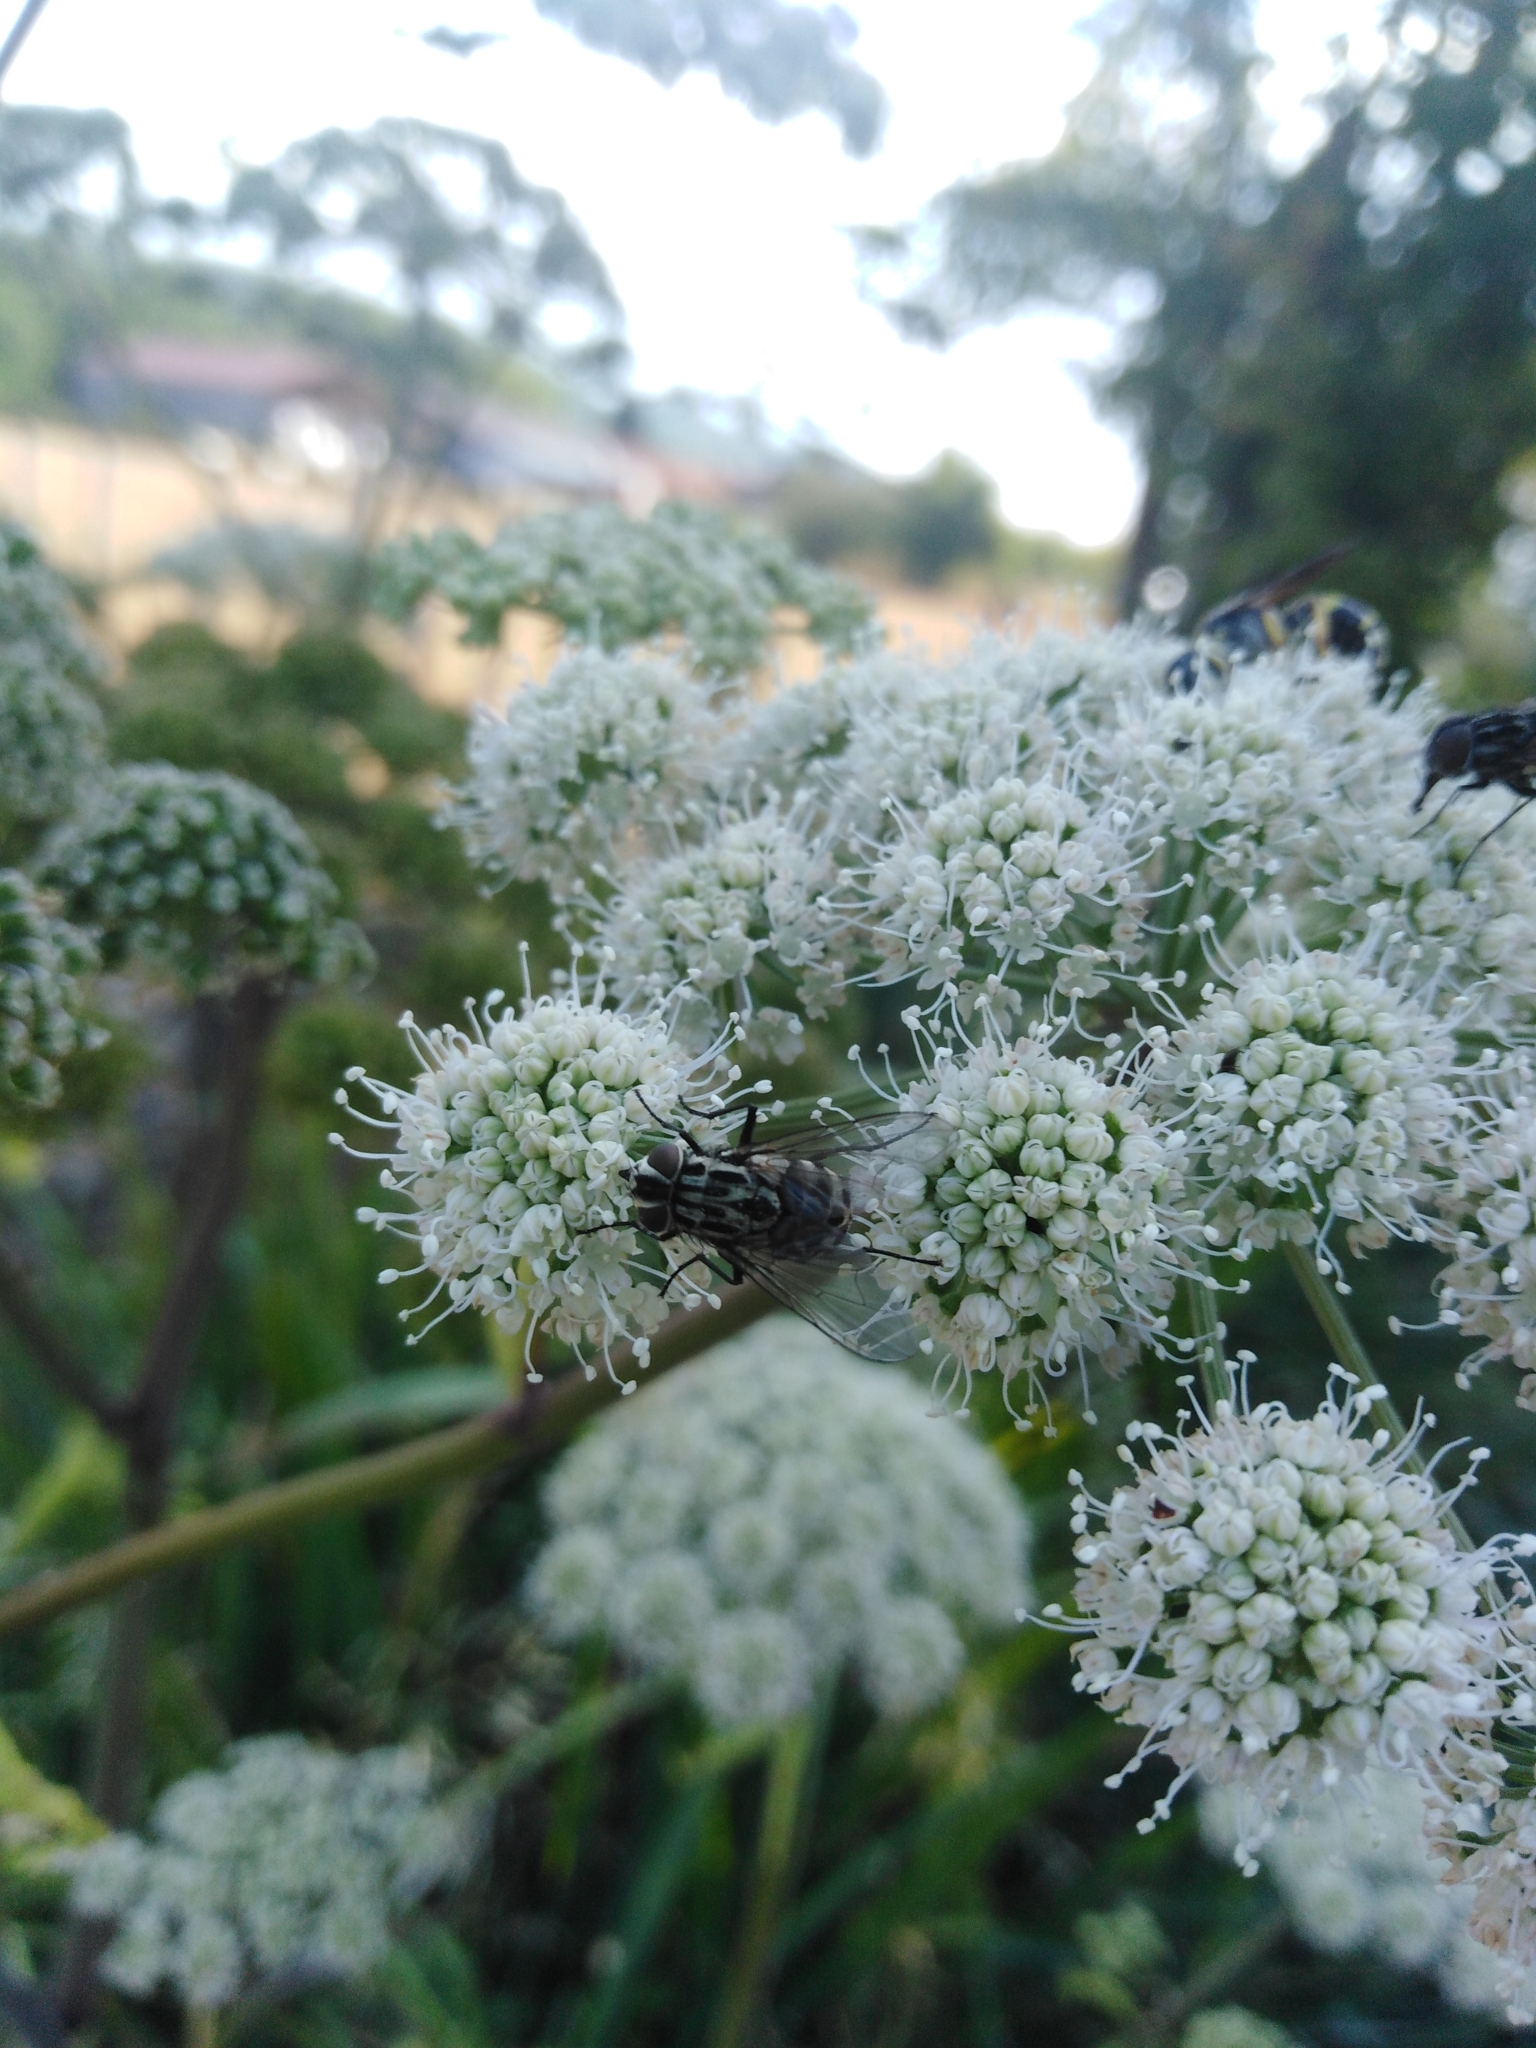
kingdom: Animalia
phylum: Arthropoda
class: Insecta
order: Diptera
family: Muscidae
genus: Graphomya
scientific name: Graphomya maculata
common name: Muscid fly
